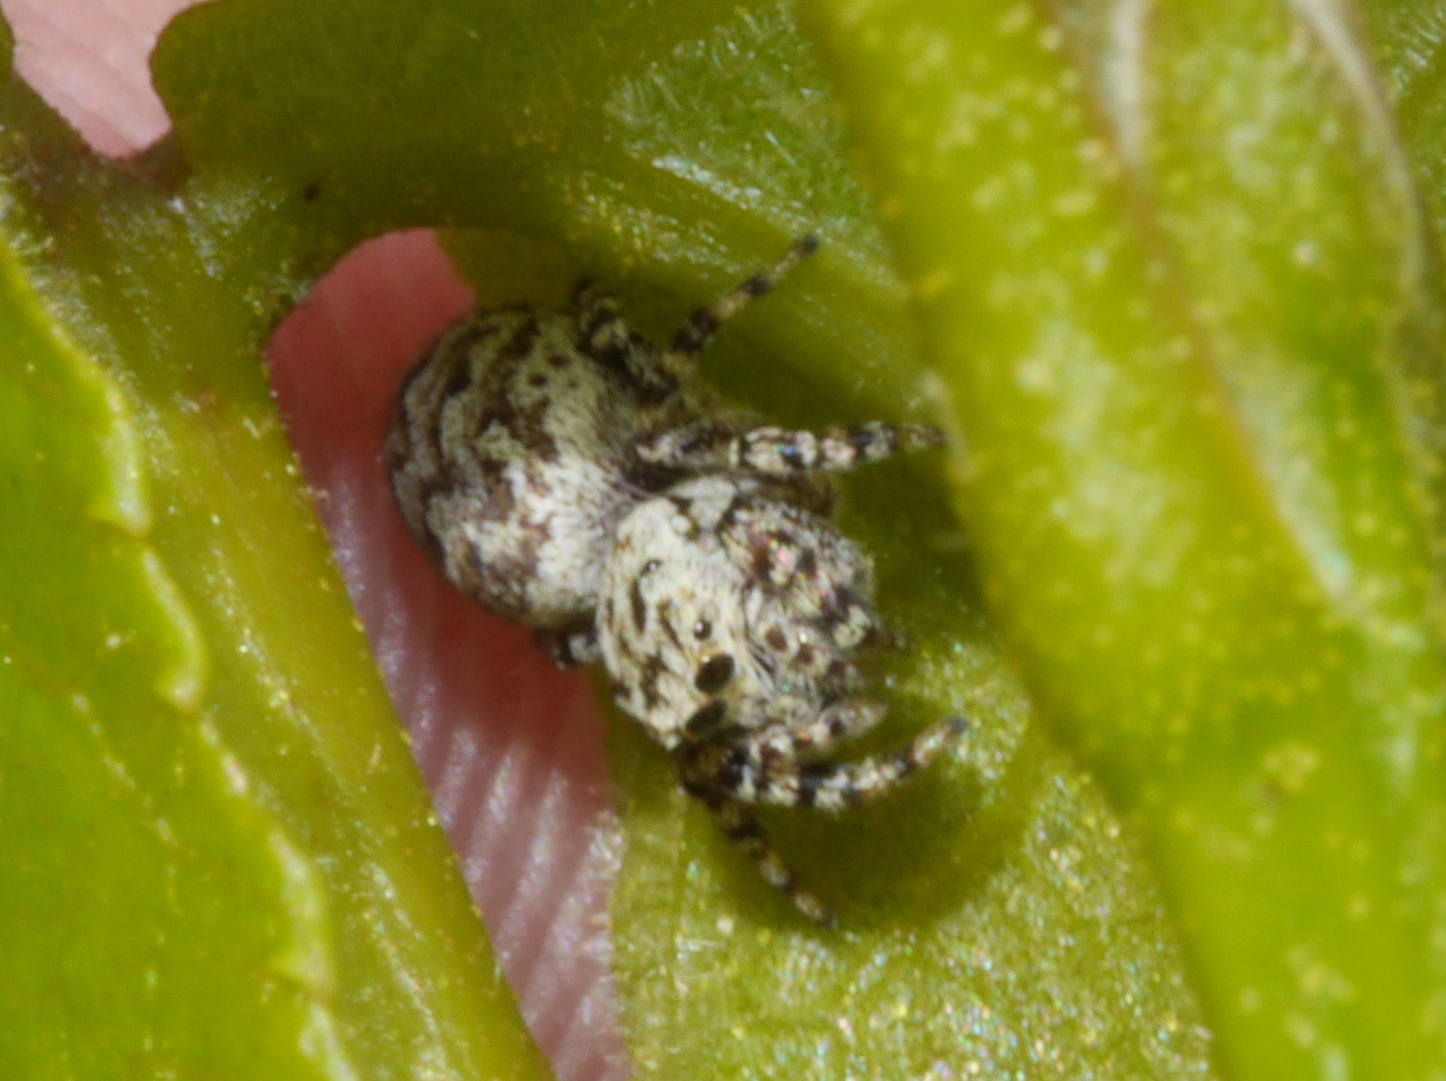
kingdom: Animalia
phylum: Arthropoda
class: Arachnida
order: Araneae
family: Salticidae
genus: Pelegrina
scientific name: Pelegrina galathea
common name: Jumping spiders
